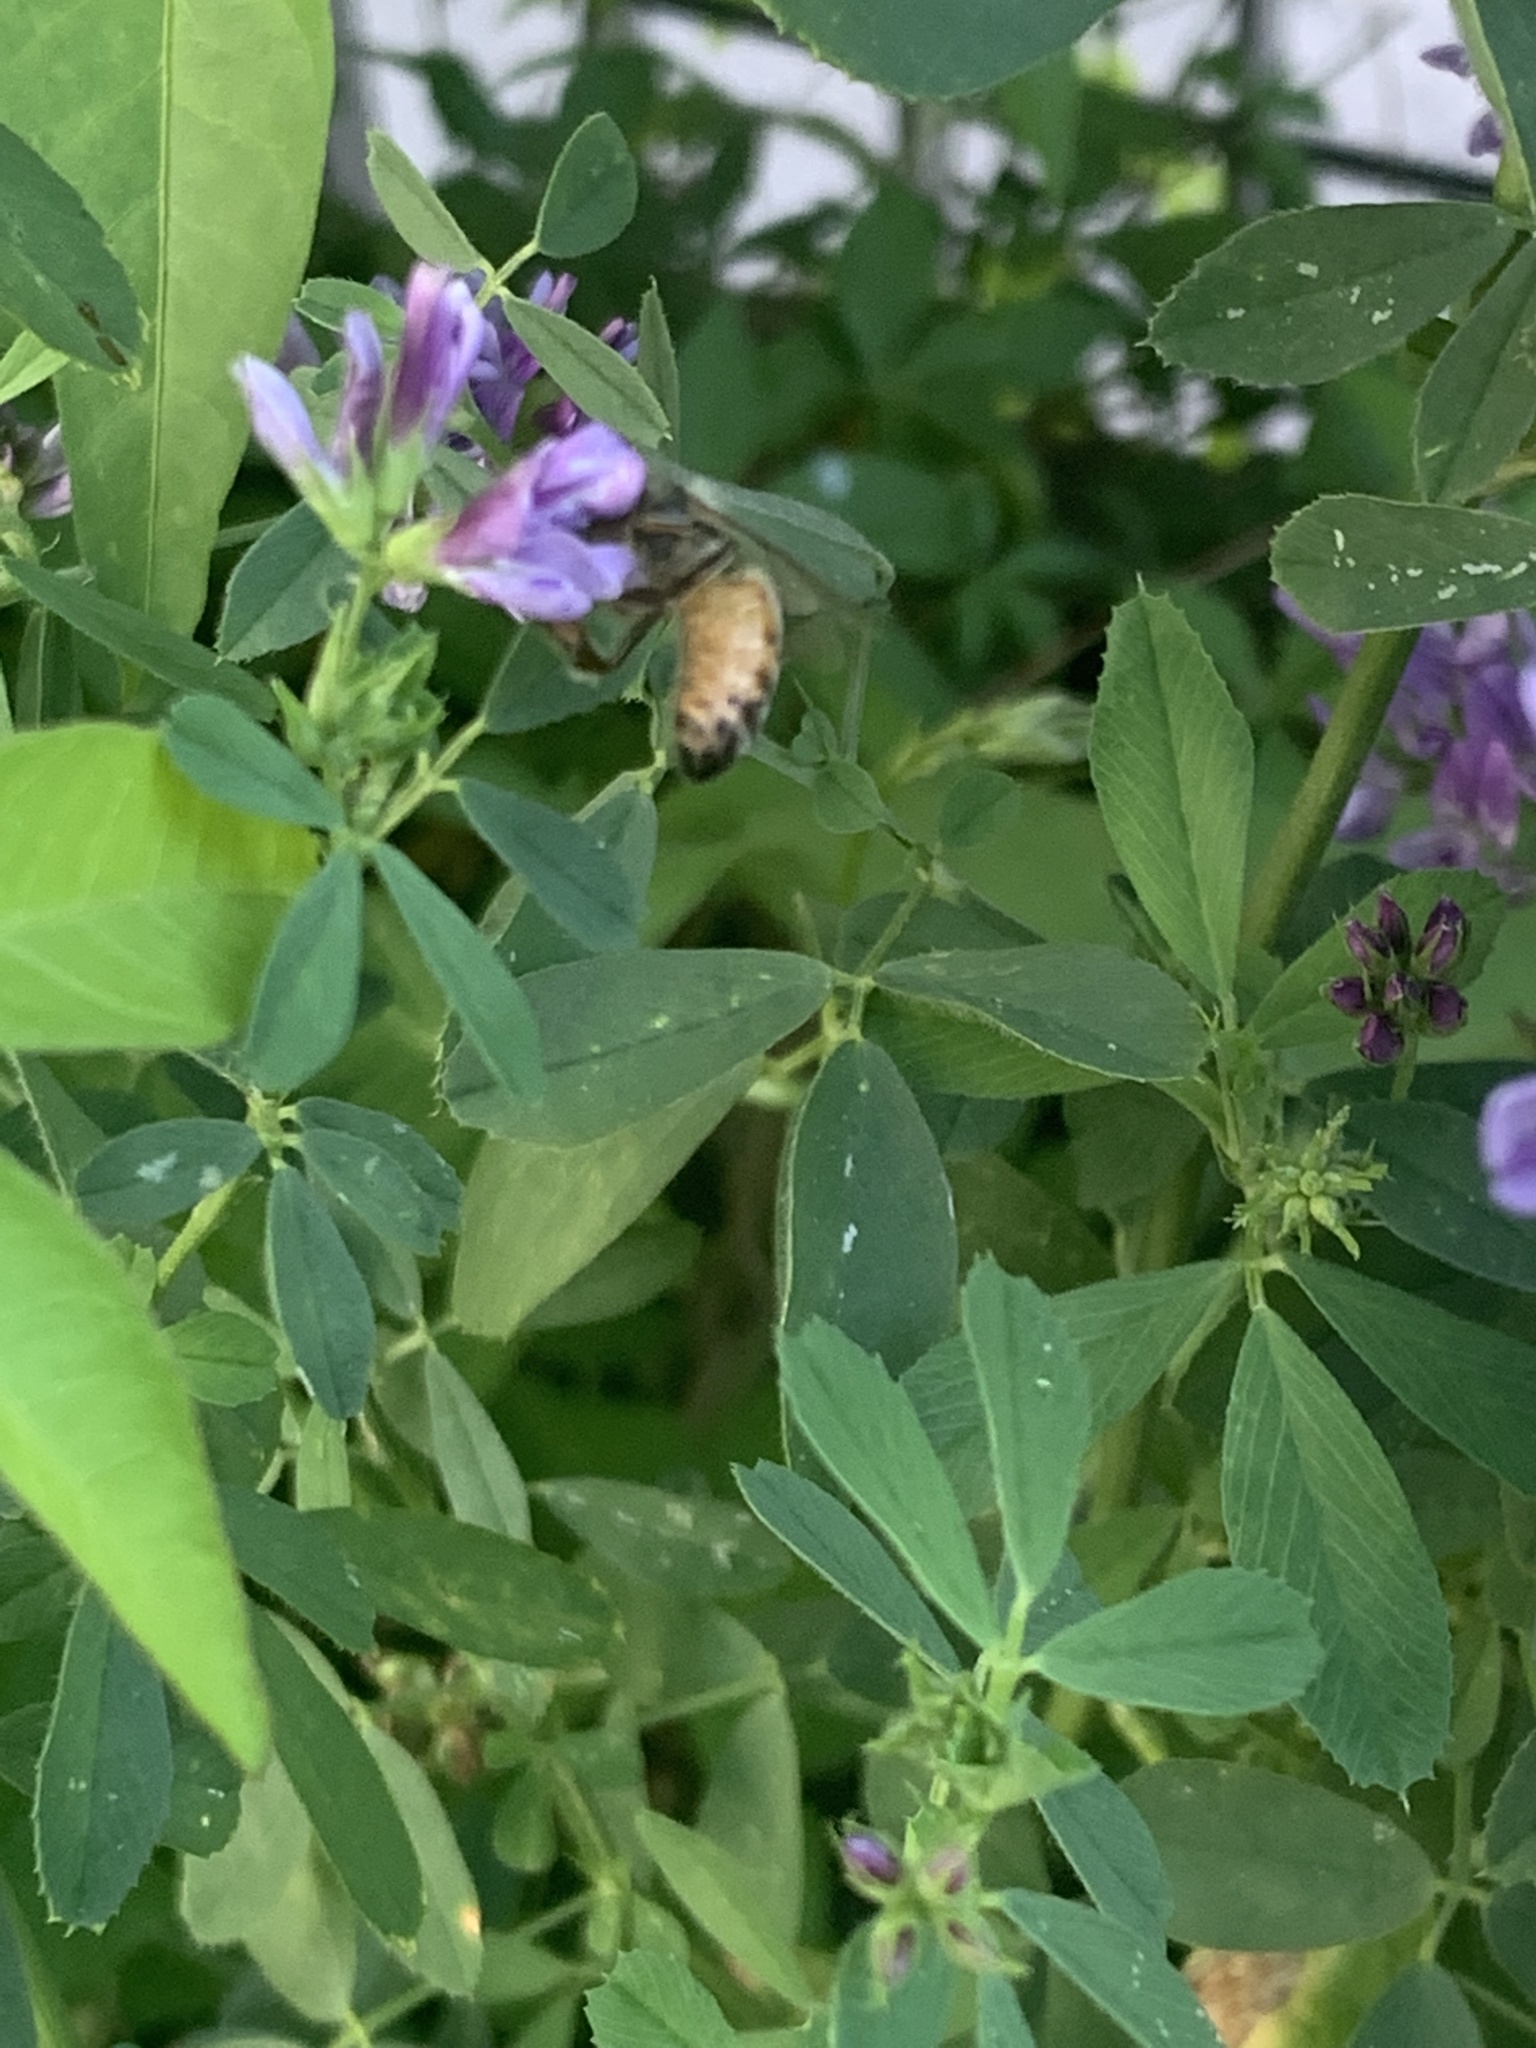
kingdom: Animalia
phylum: Arthropoda
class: Insecta
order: Hymenoptera
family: Apidae
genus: Apis
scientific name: Apis mellifera
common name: Honey bee
